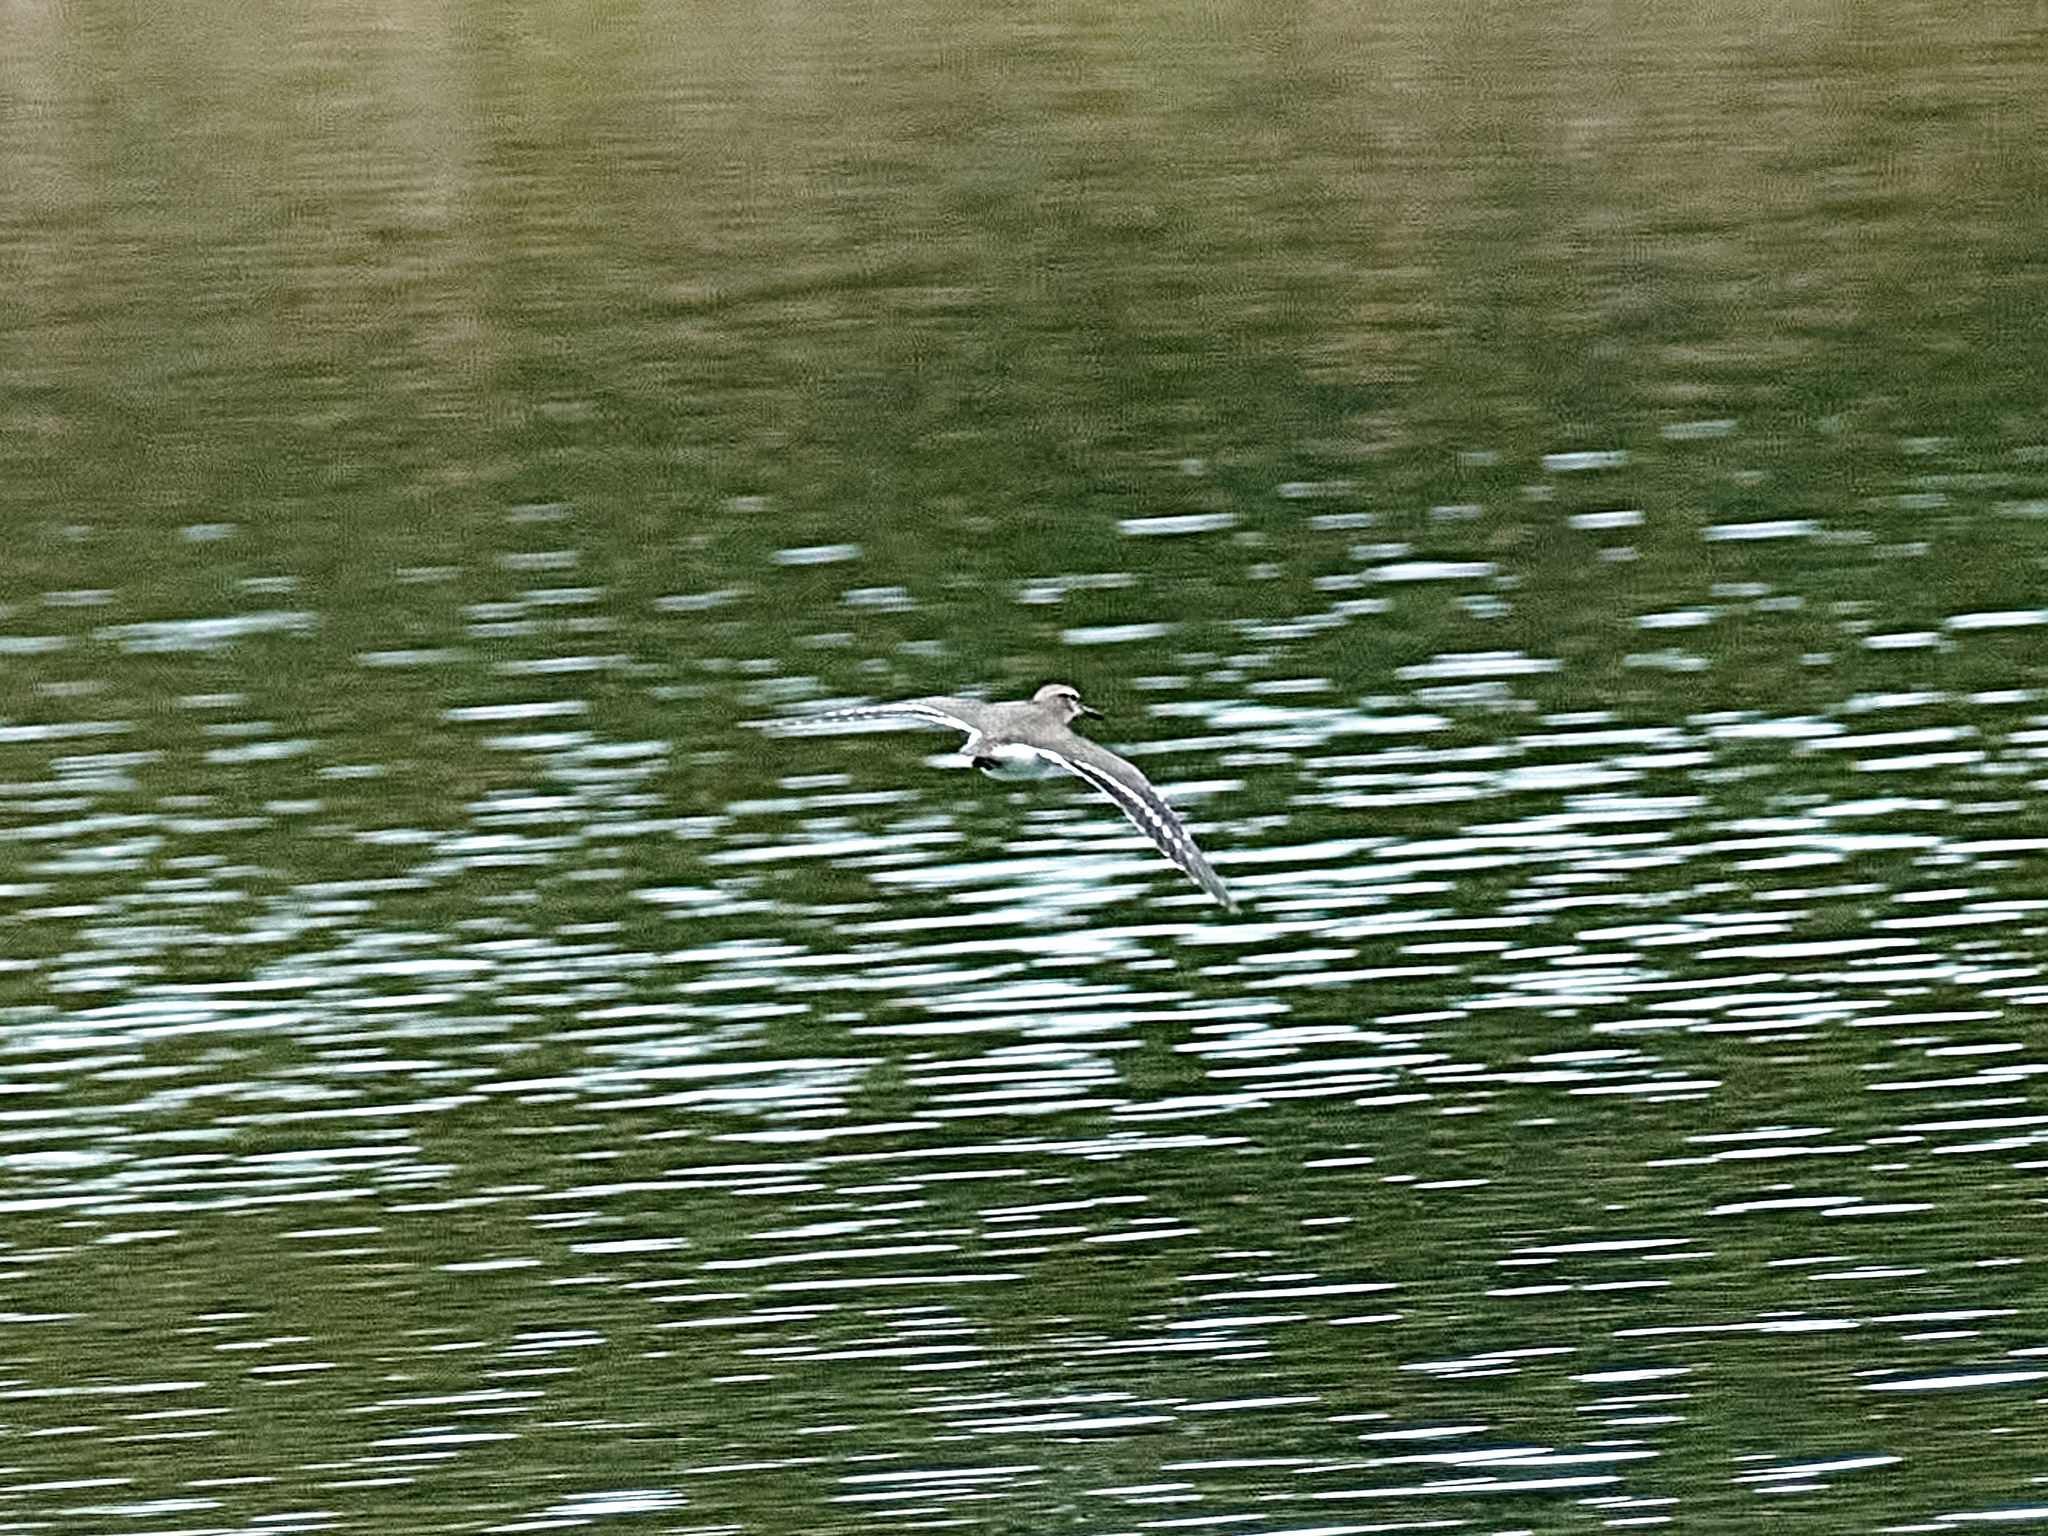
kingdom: Animalia
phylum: Chordata
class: Aves
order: Charadriiformes
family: Scolopacidae
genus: Actitis
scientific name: Actitis hypoleucos
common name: Common sandpiper
